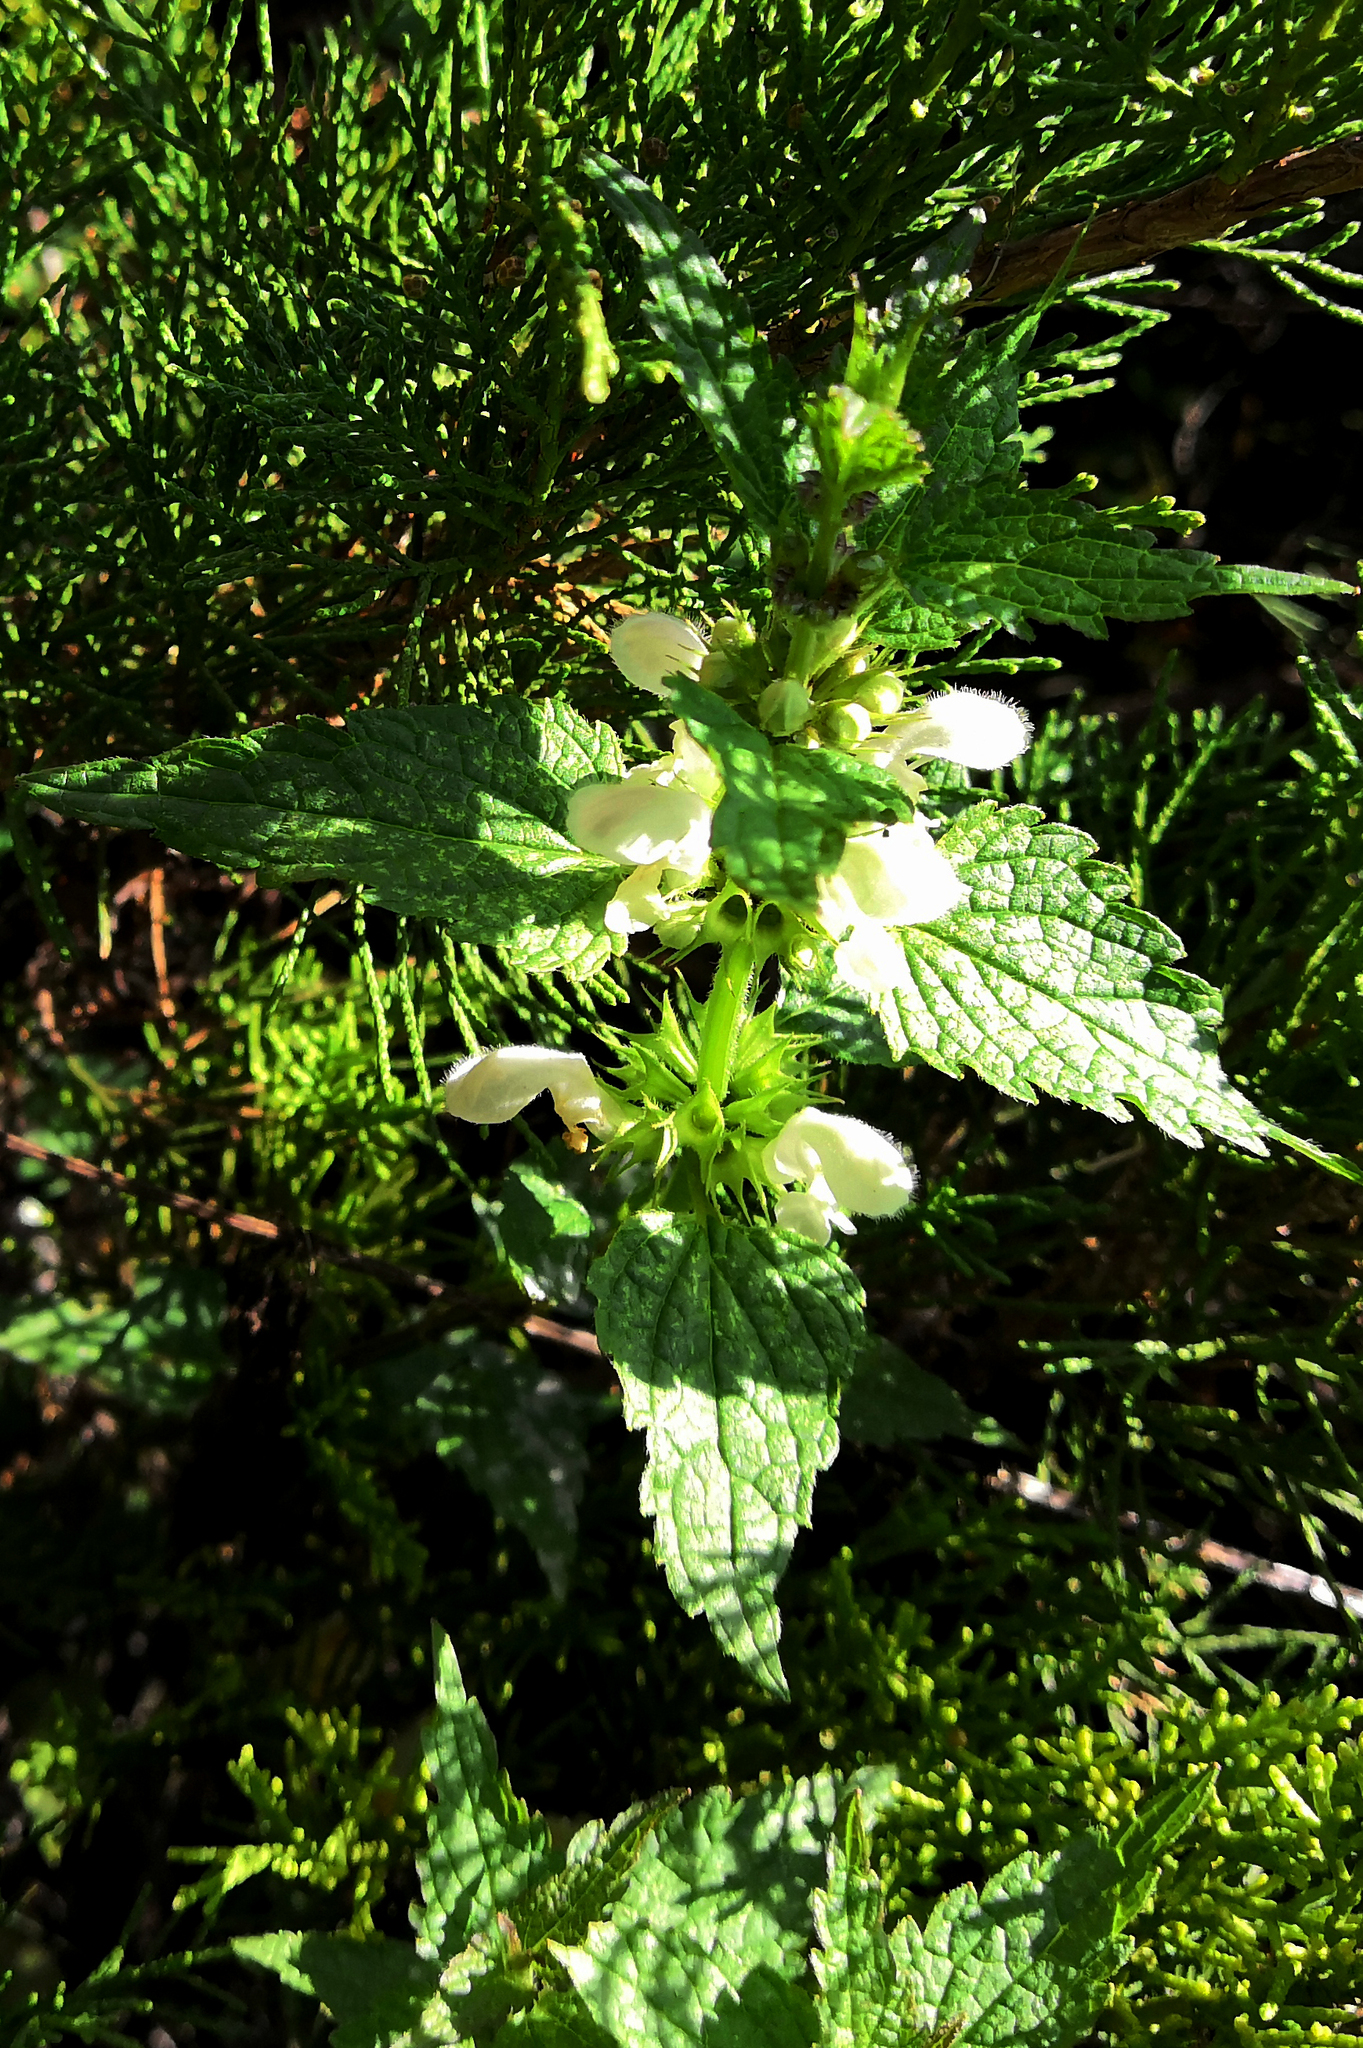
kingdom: Plantae
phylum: Tracheophyta
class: Magnoliopsida
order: Lamiales
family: Lamiaceae
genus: Lamium
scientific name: Lamium album
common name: White dead-nettle
